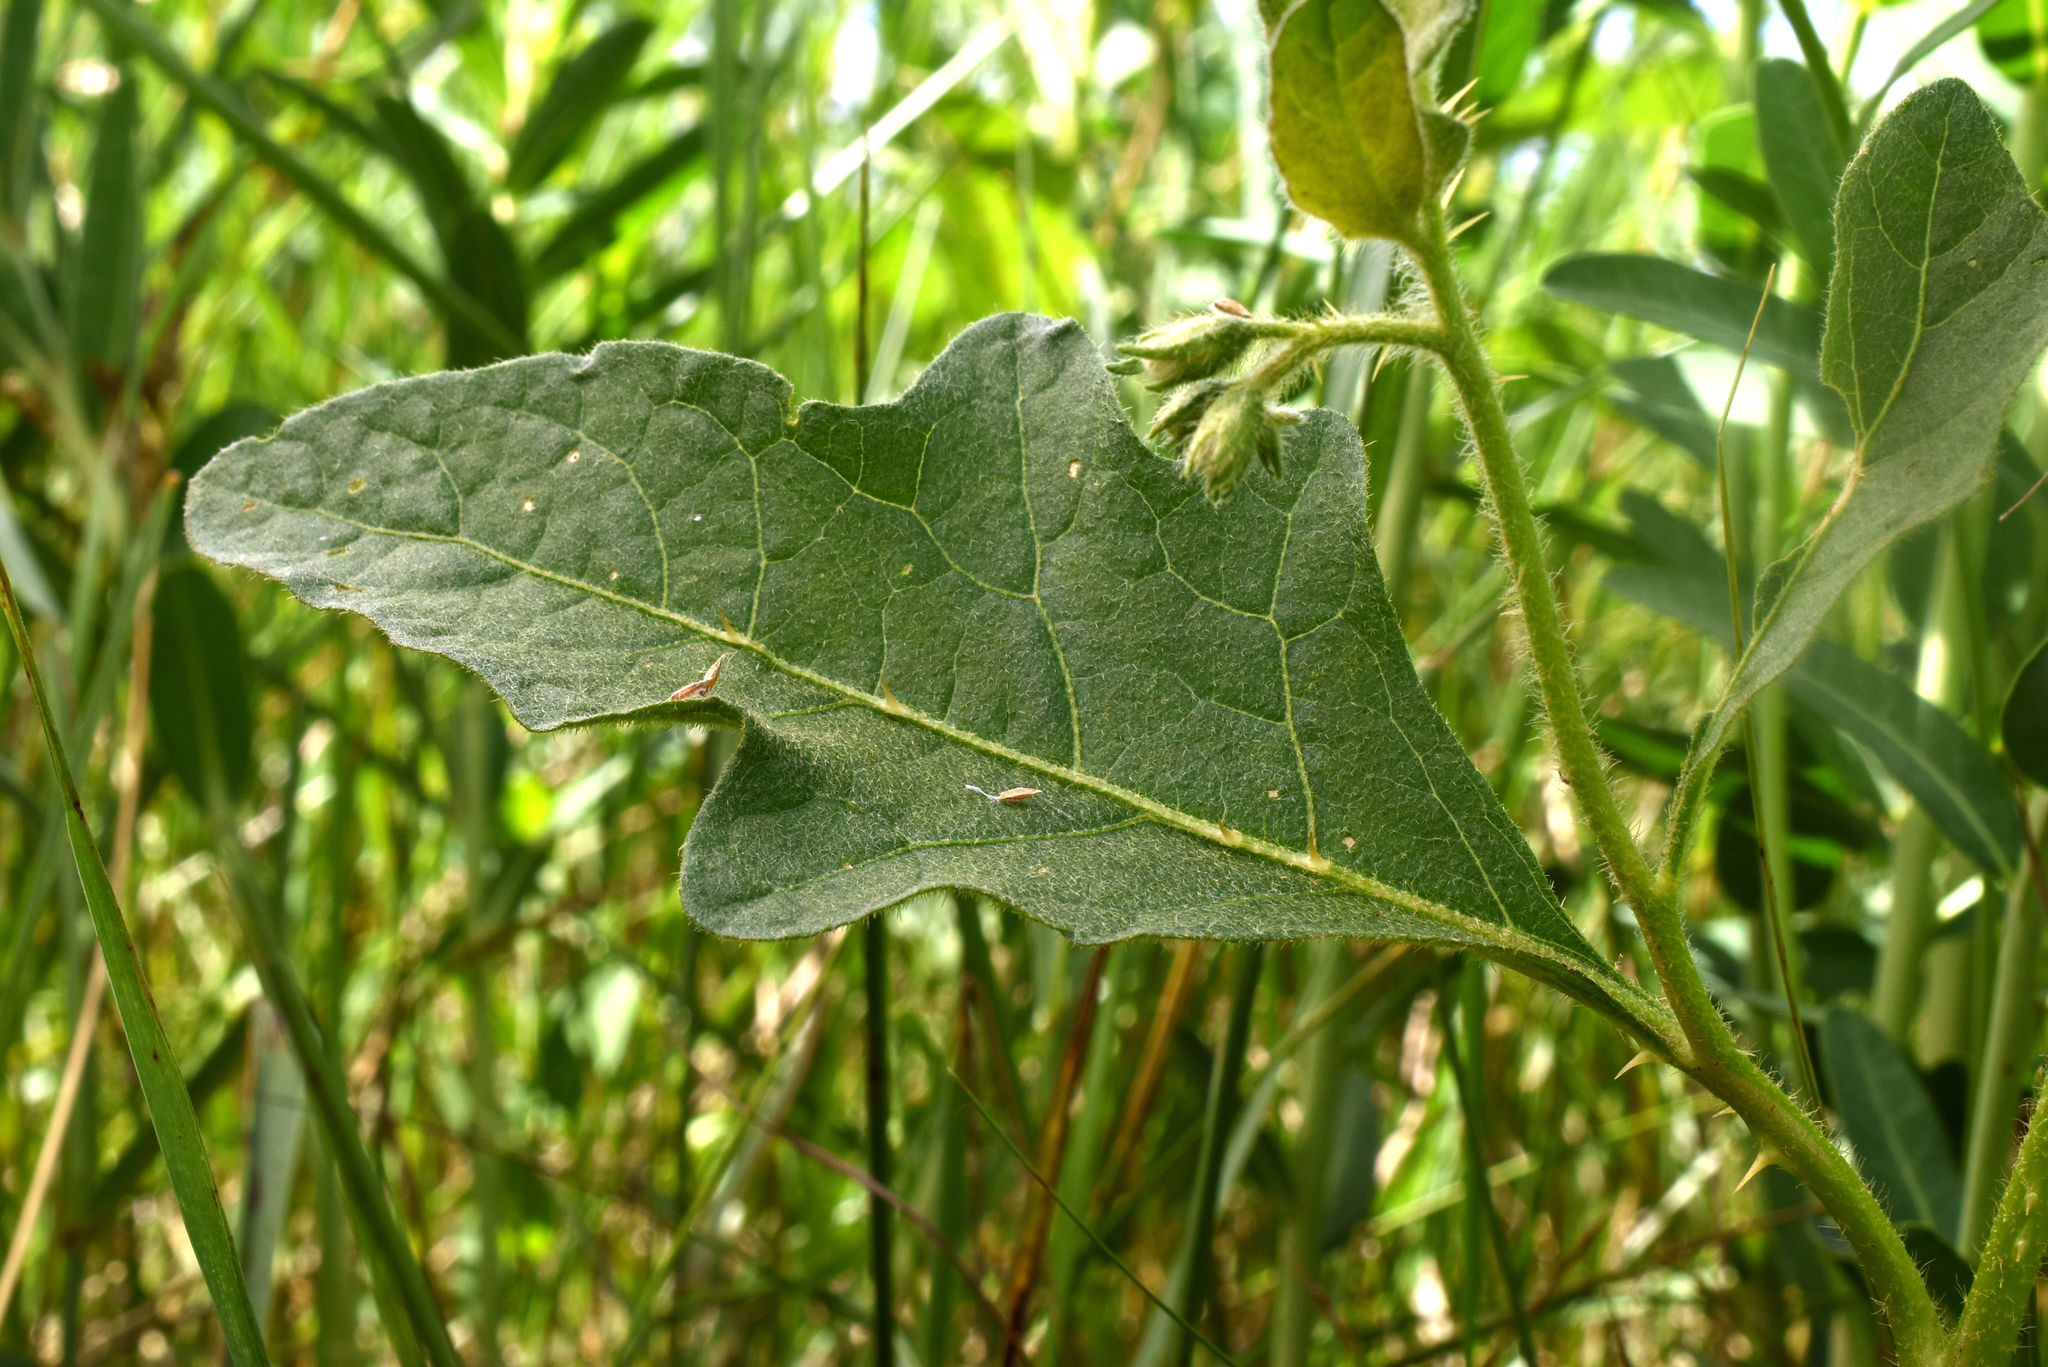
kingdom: Plantae
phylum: Tracheophyta
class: Magnoliopsida
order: Solanales
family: Solanaceae
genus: Solanum
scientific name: Solanum carolinense
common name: Horse-nettle
